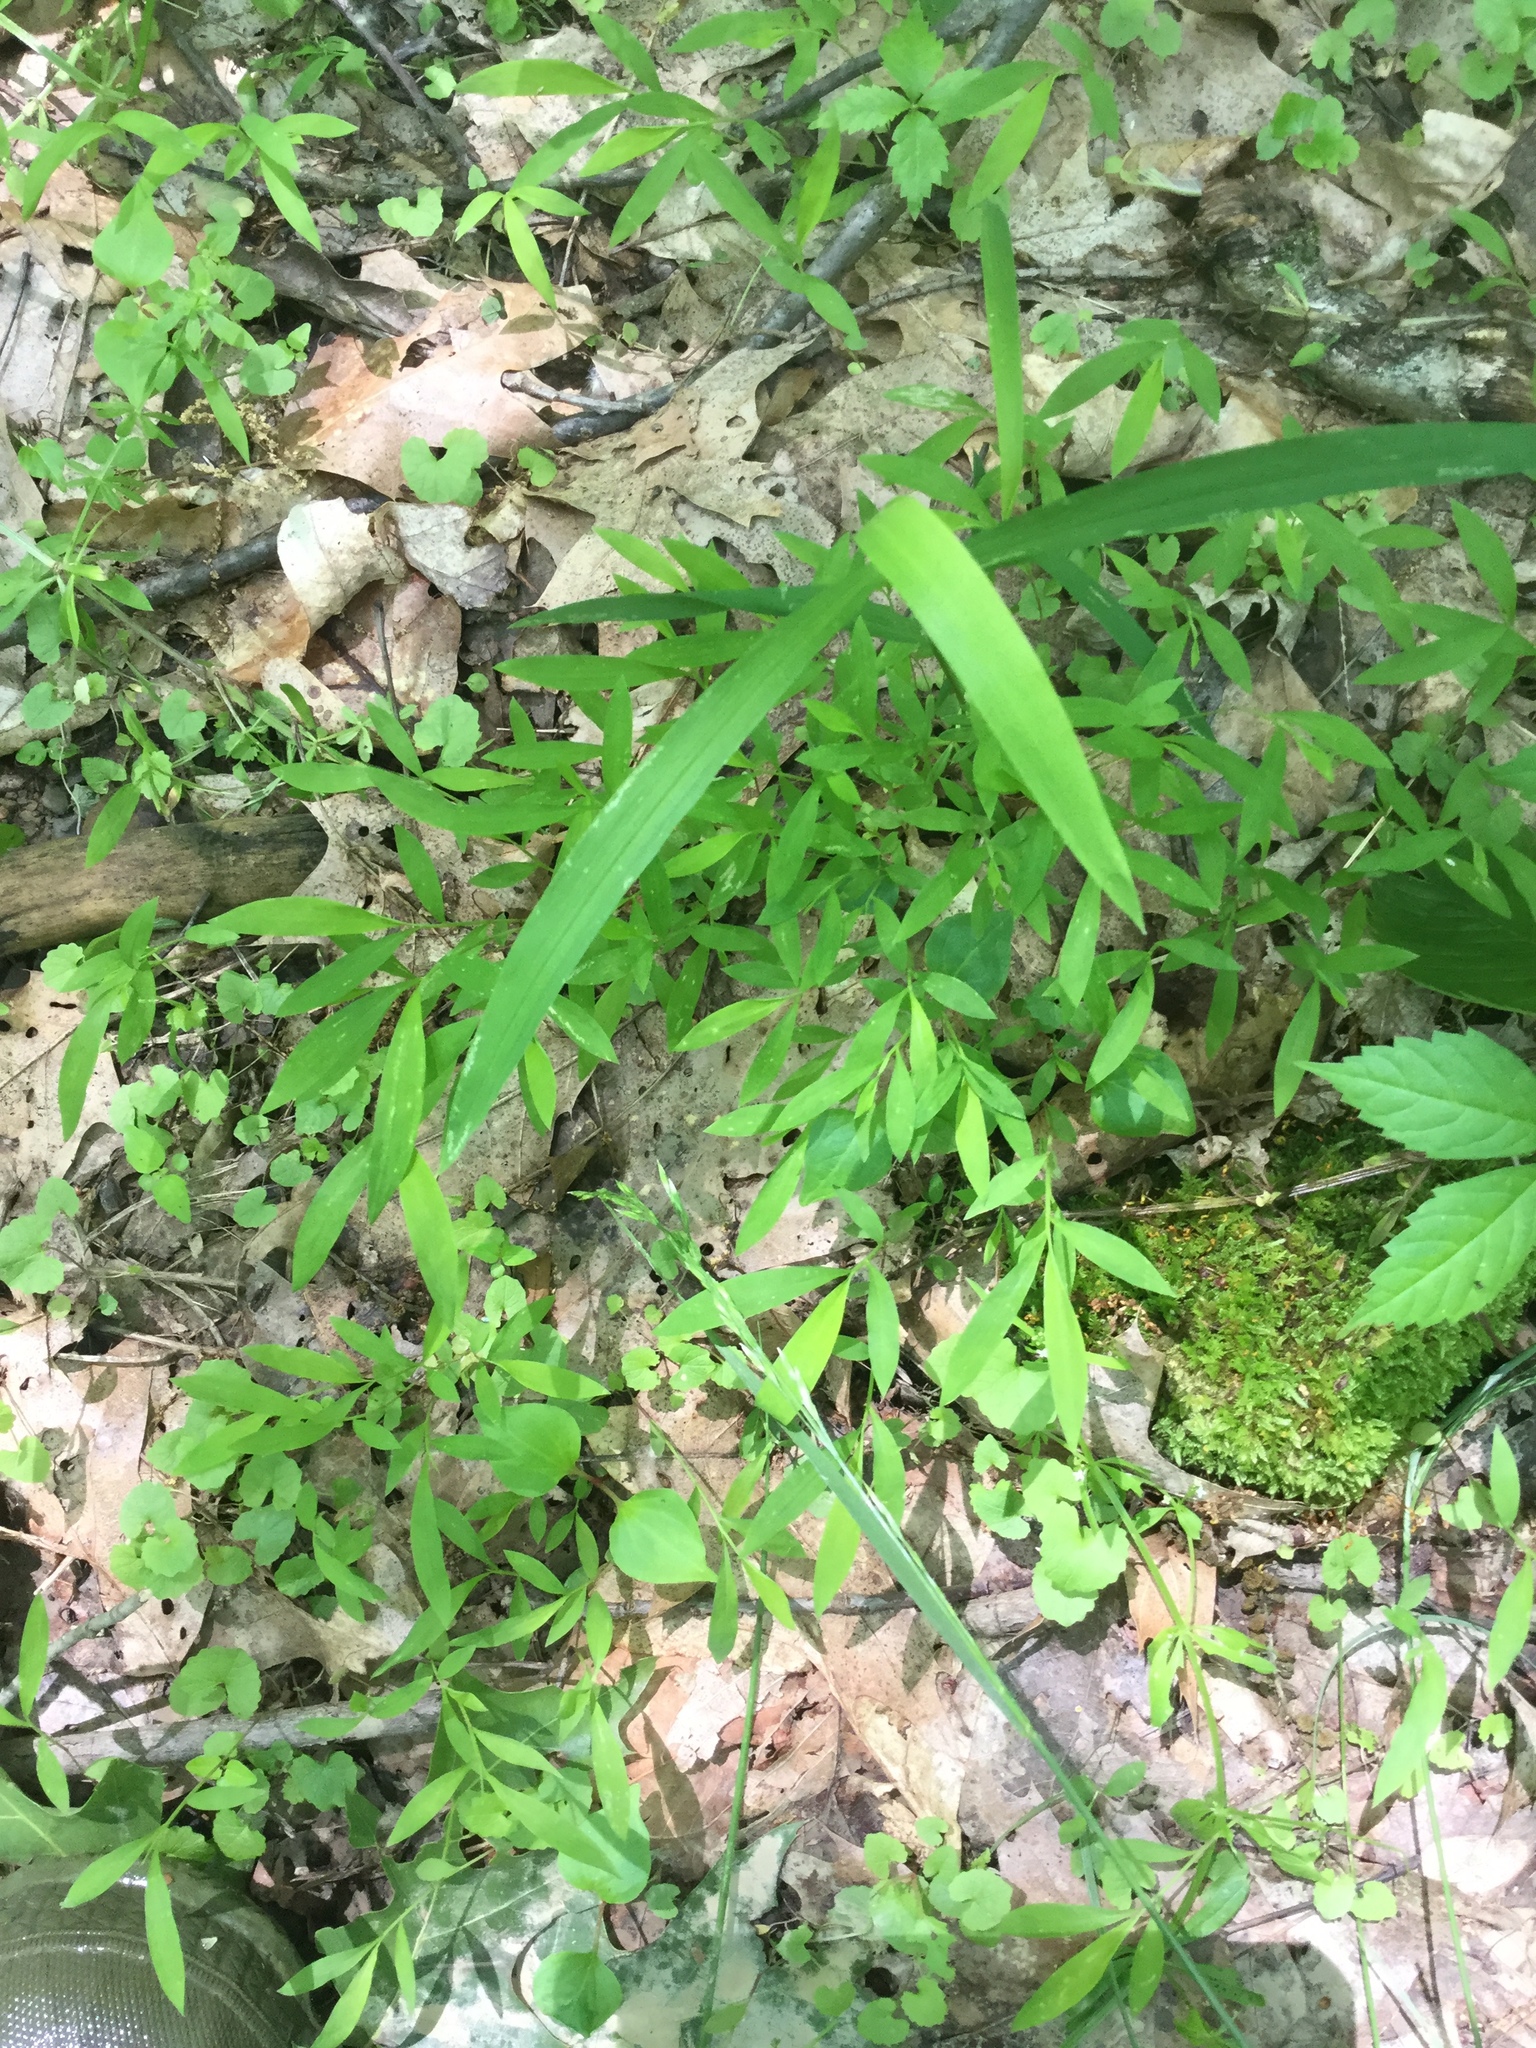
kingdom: Plantae
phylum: Tracheophyta
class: Liliopsida
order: Poales
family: Poaceae
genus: Microstegium
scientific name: Microstegium vimineum
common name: Japanese stiltgrass
